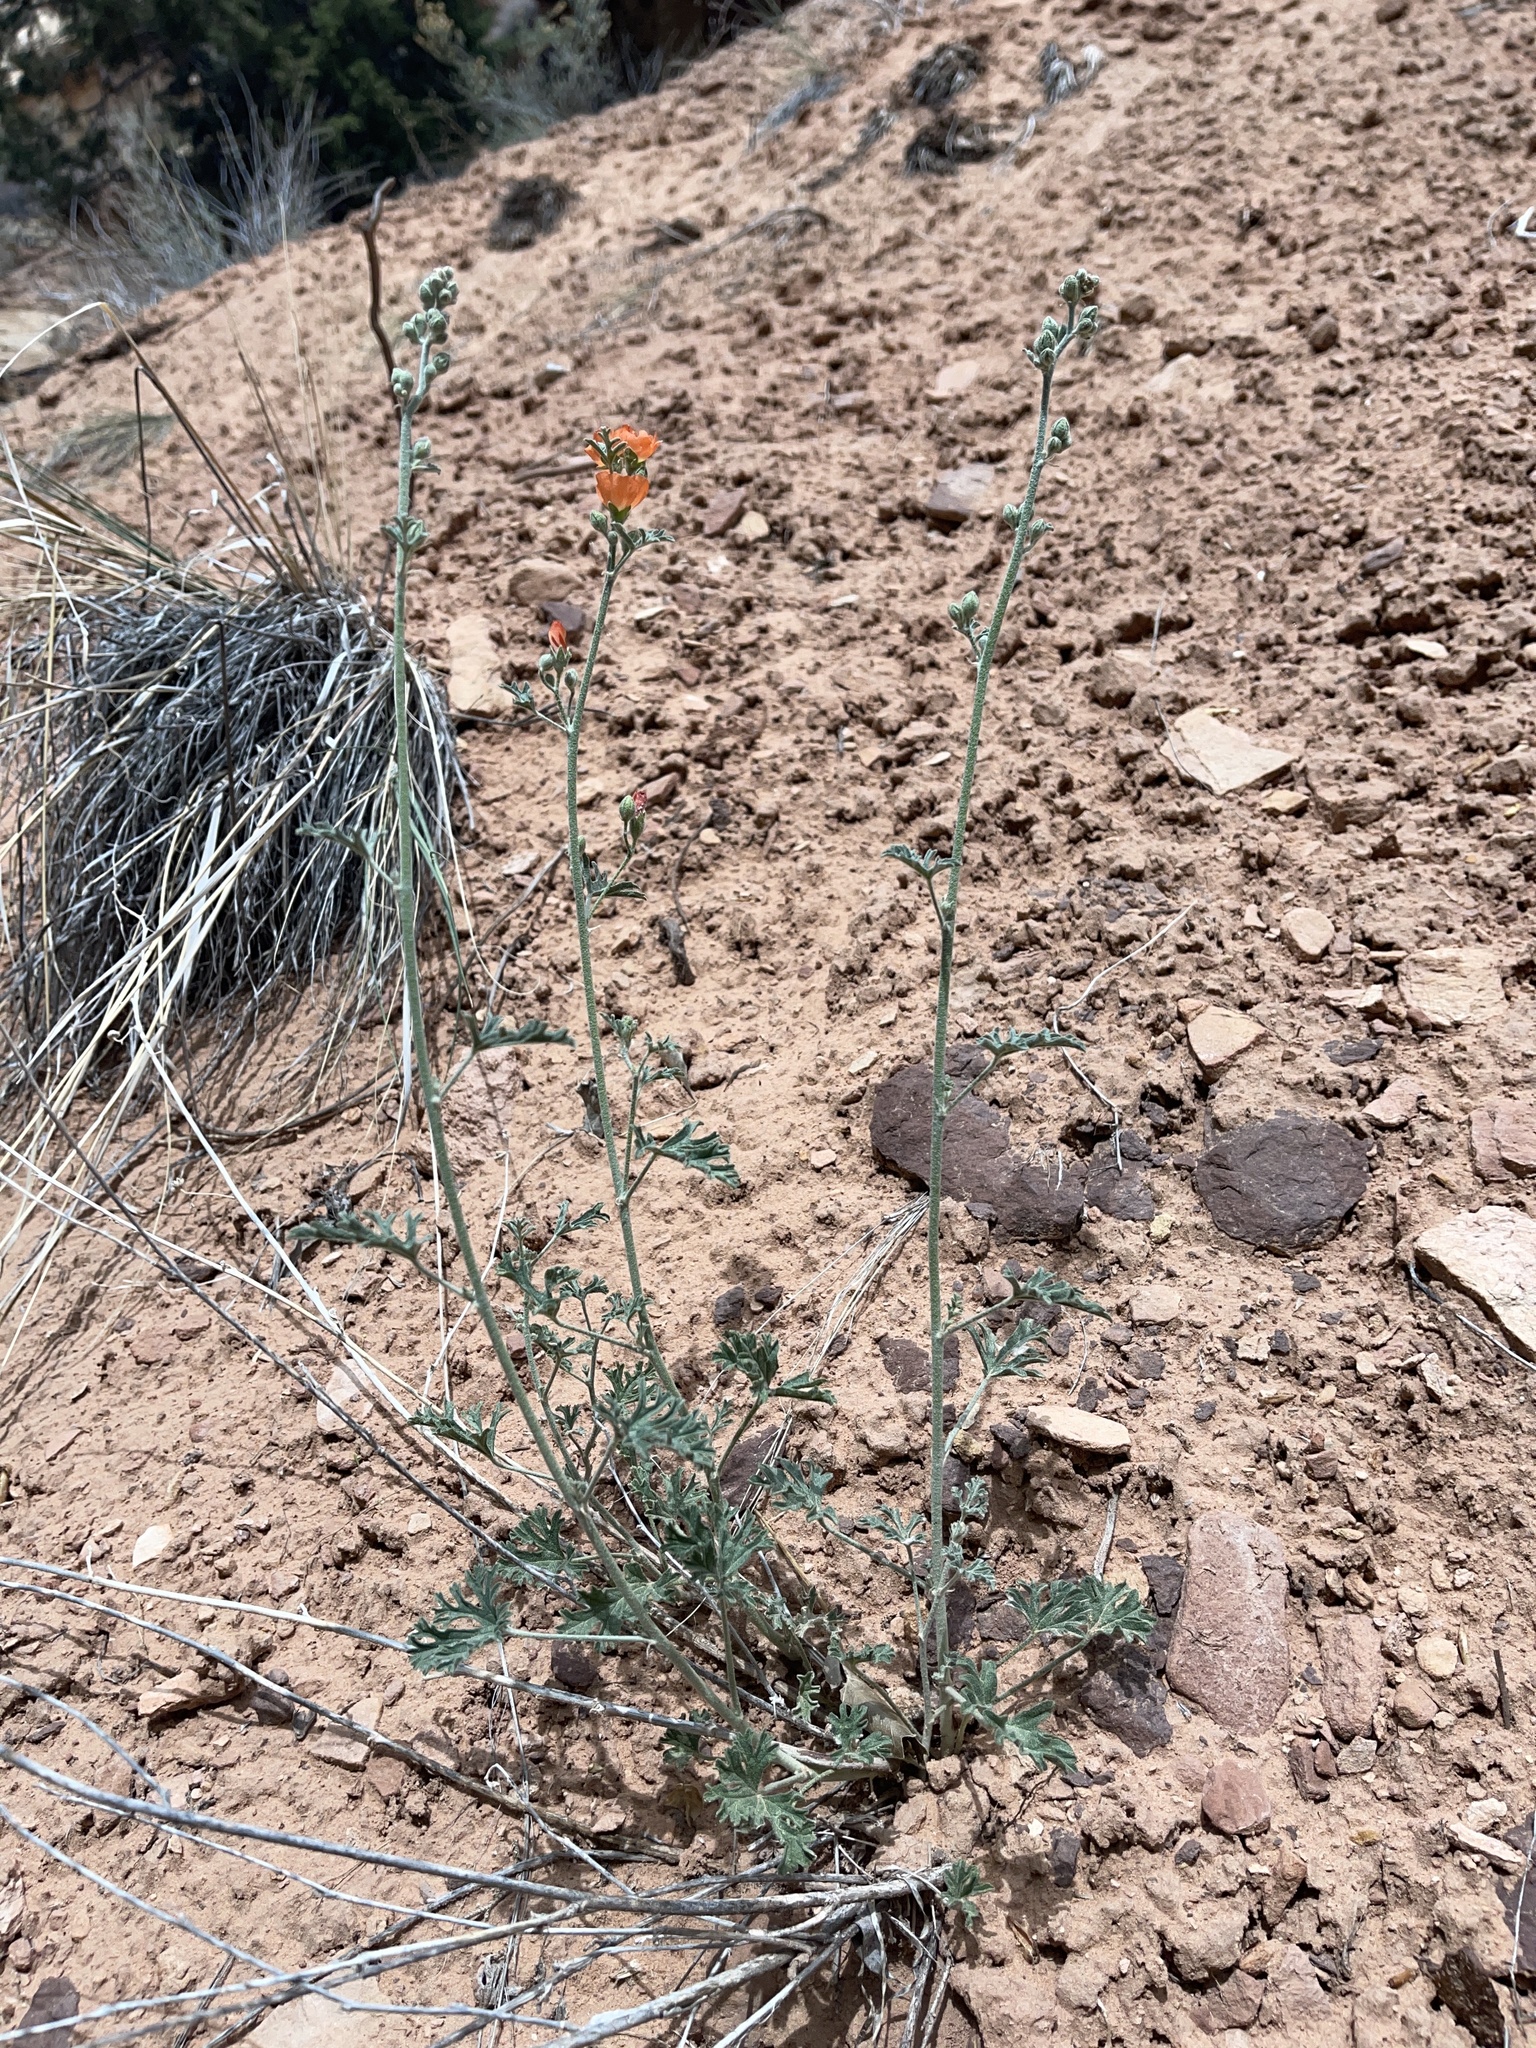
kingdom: Plantae
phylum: Tracheophyta
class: Magnoliopsida
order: Malvales
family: Malvaceae
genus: Sphaeralcea
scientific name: Sphaeralcea coccinea
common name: Moss-rose
